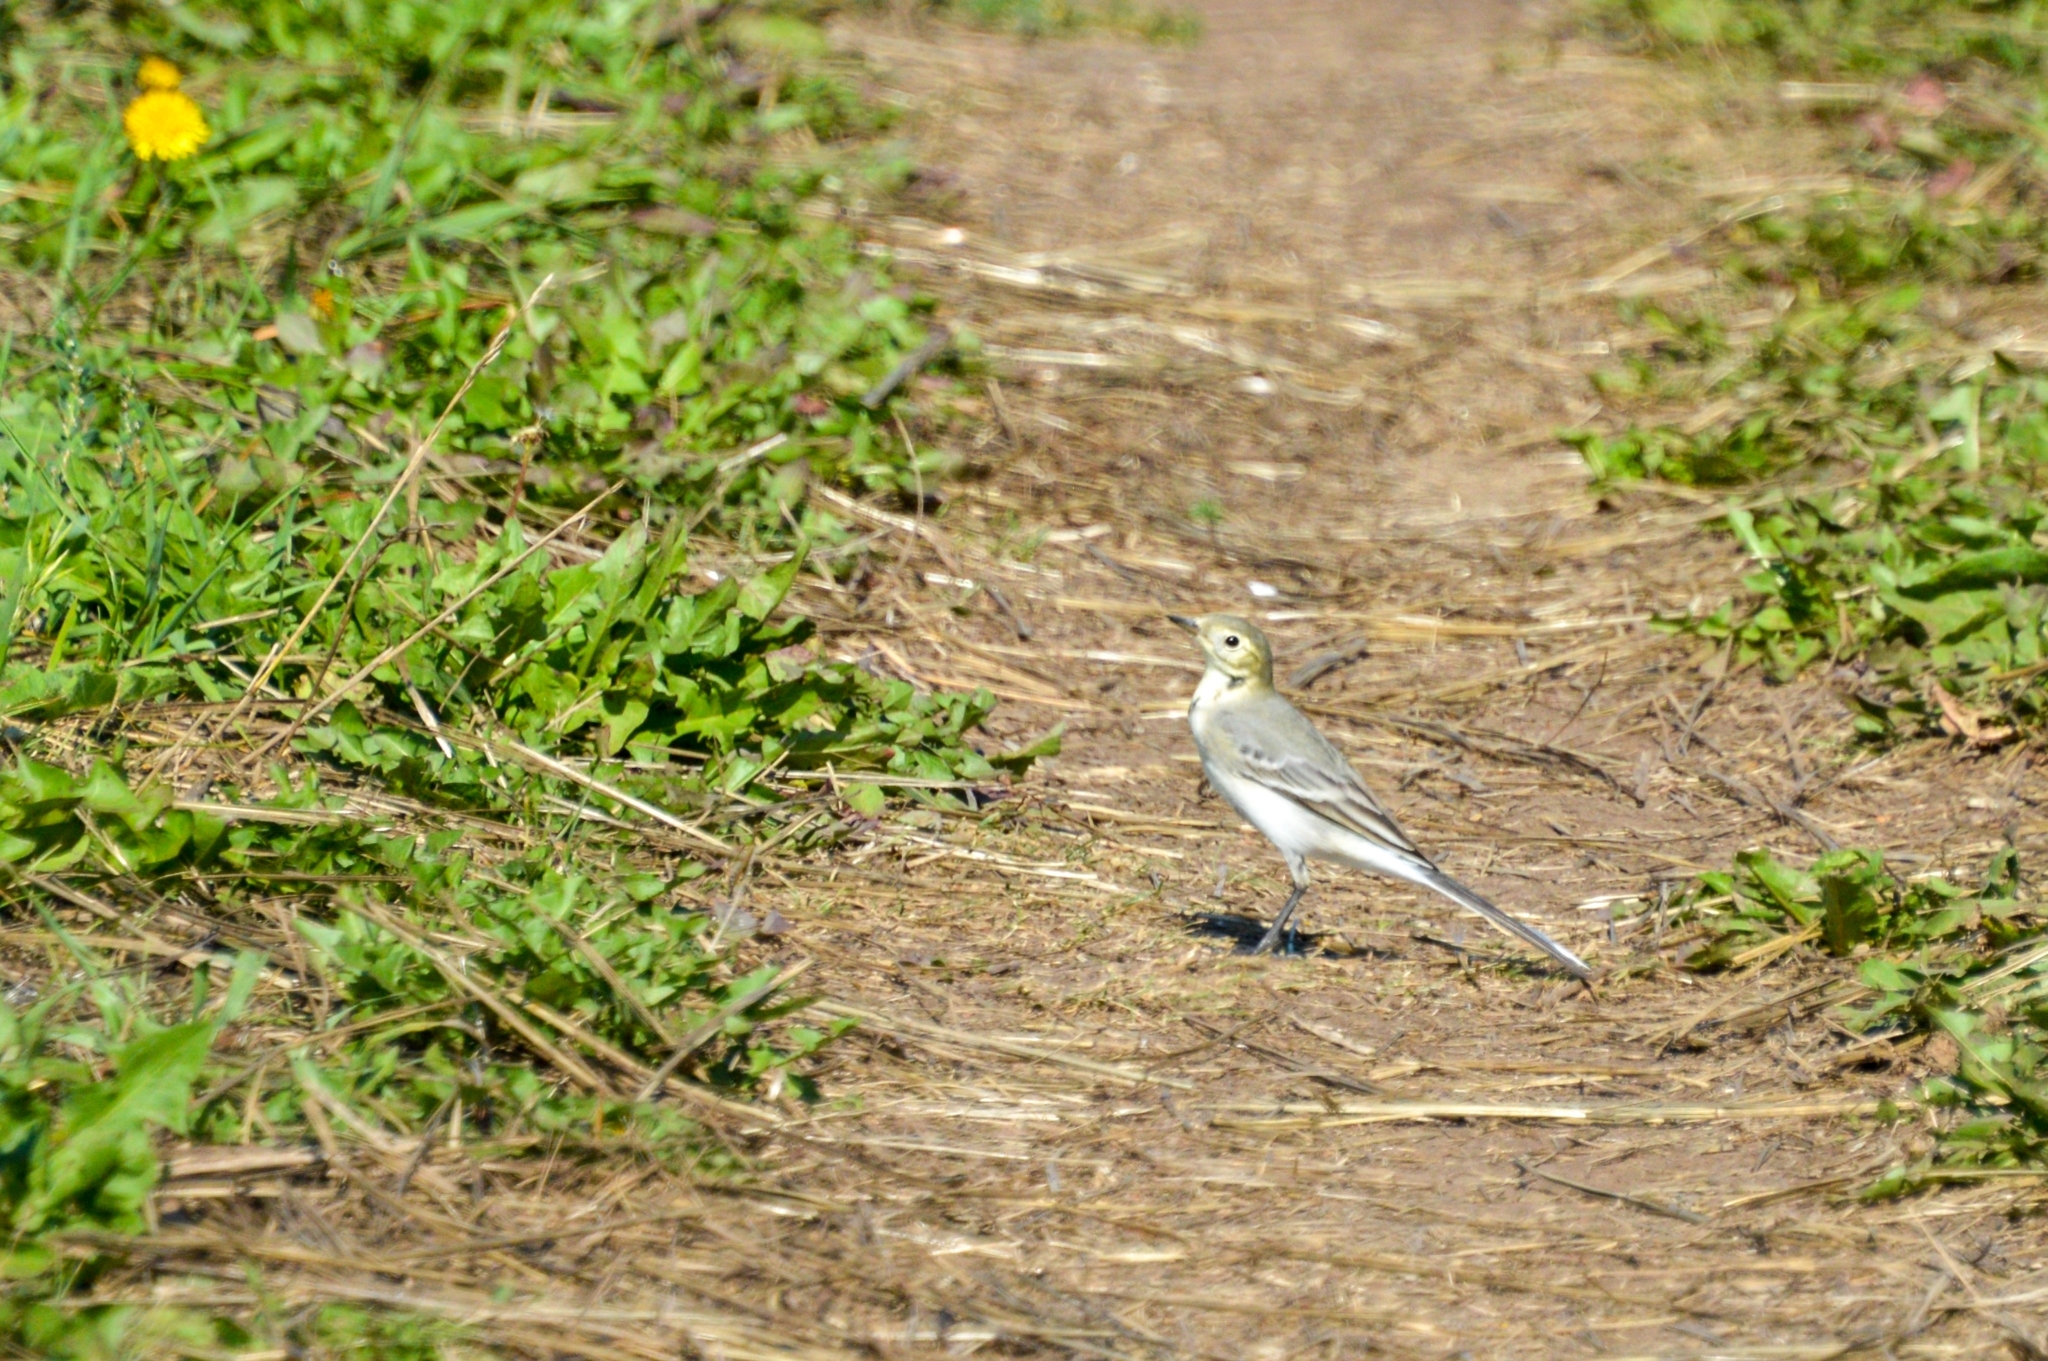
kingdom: Animalia
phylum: Chordata
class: Aves
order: Passeriformes
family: Motacillidae
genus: Motacilla
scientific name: Motacilla alba
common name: White wagtail
